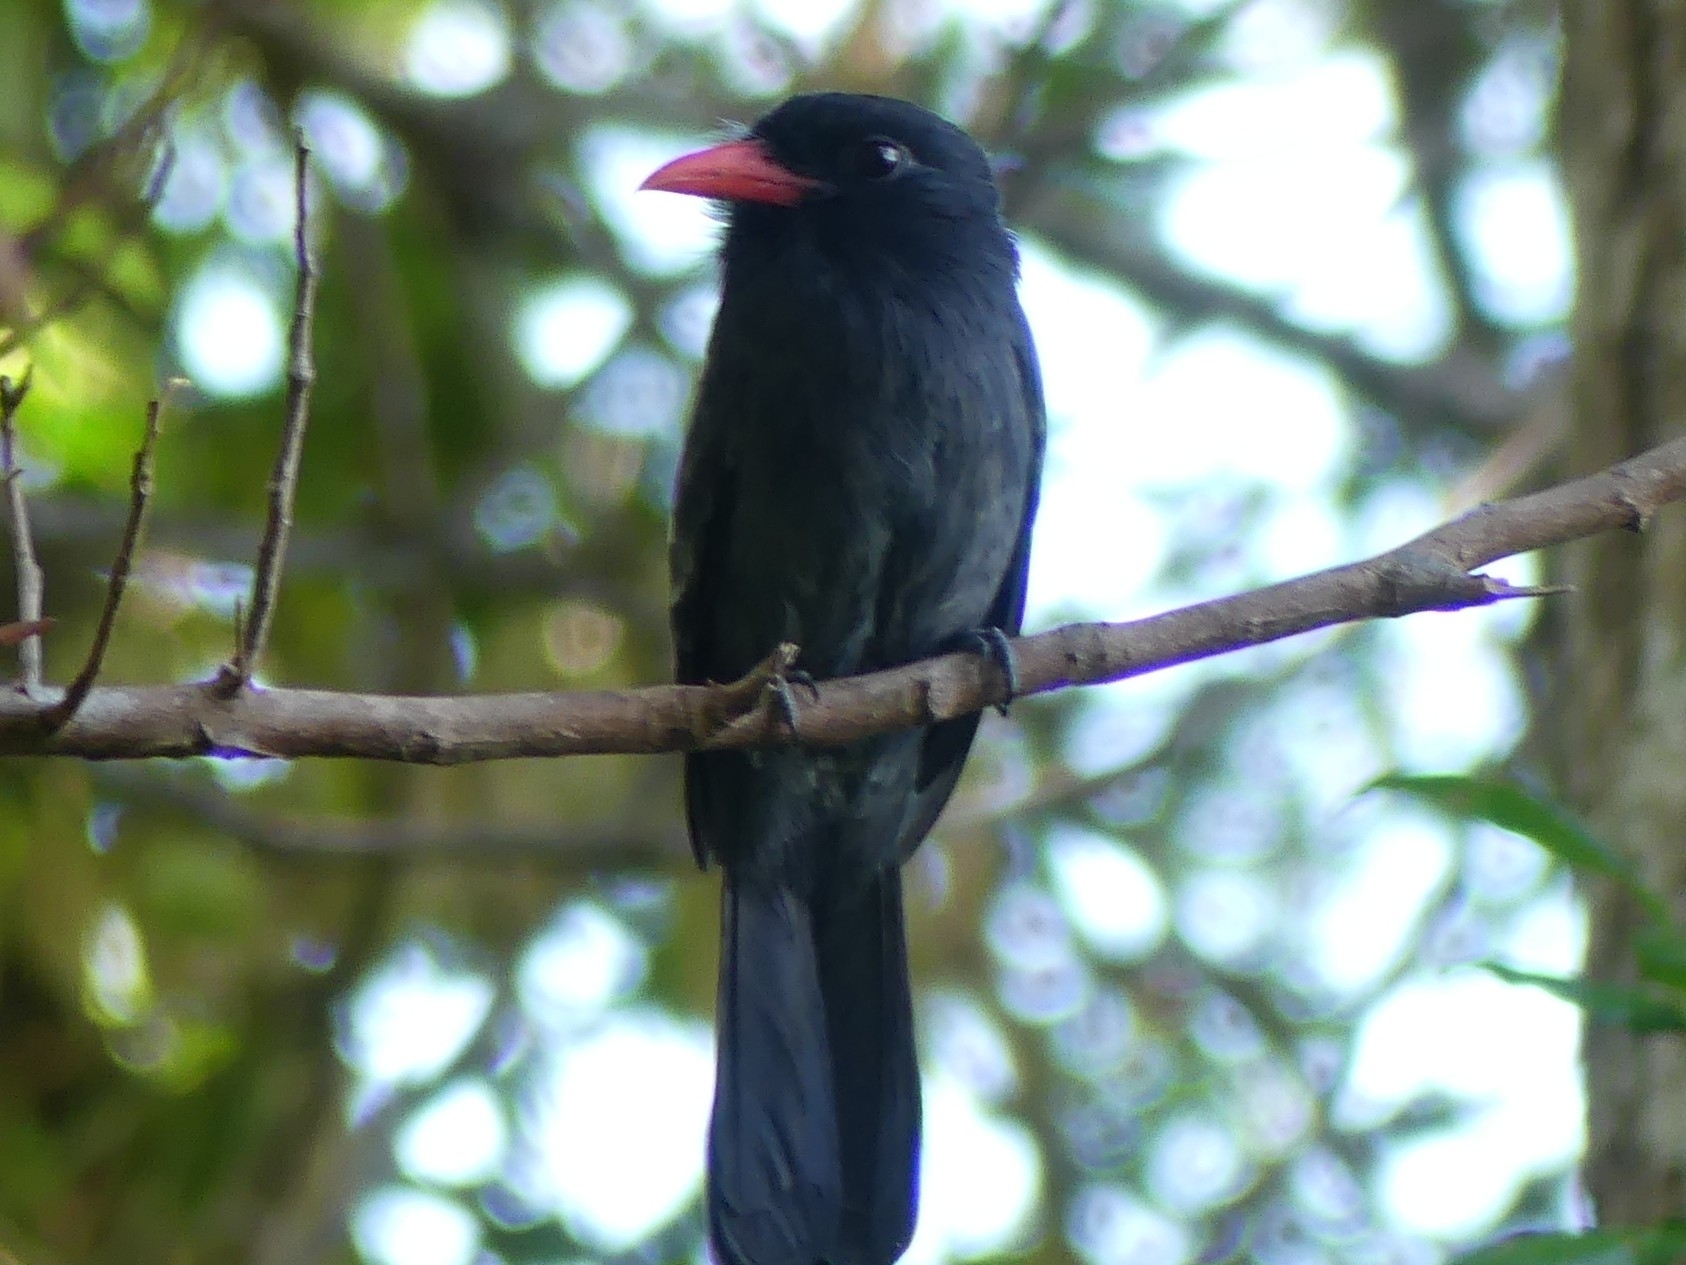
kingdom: Animalia
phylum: Chordata
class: Aves
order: Piciformes
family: Bucconidae
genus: Monasa
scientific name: Monasa atra
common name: Black nunbird
